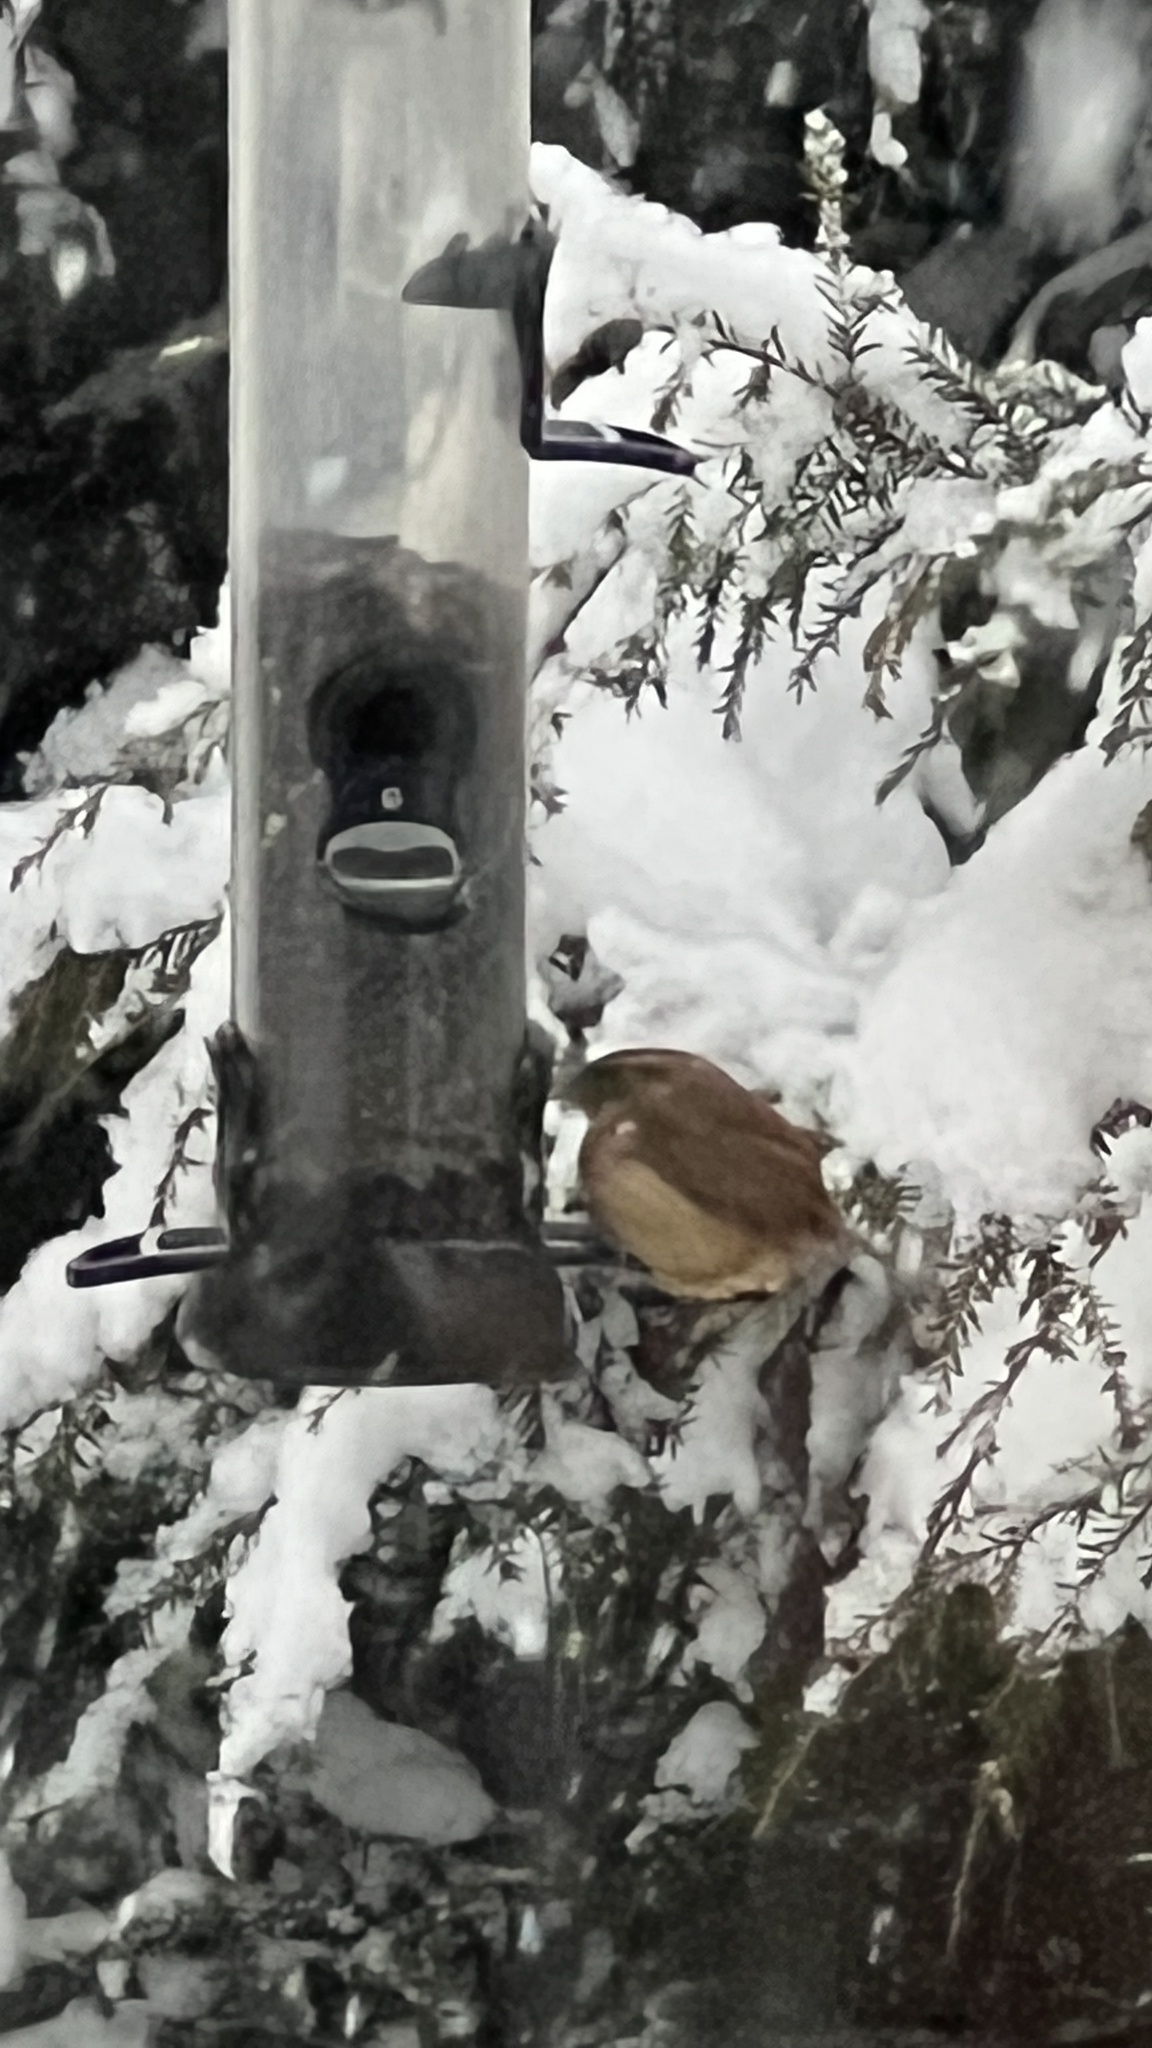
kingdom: Animalia
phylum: Chordata
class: Aves
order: Passeriformes
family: Troglodytidae
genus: Thryothorus
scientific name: Thryothorus ludovicianus
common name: Carolina wren
